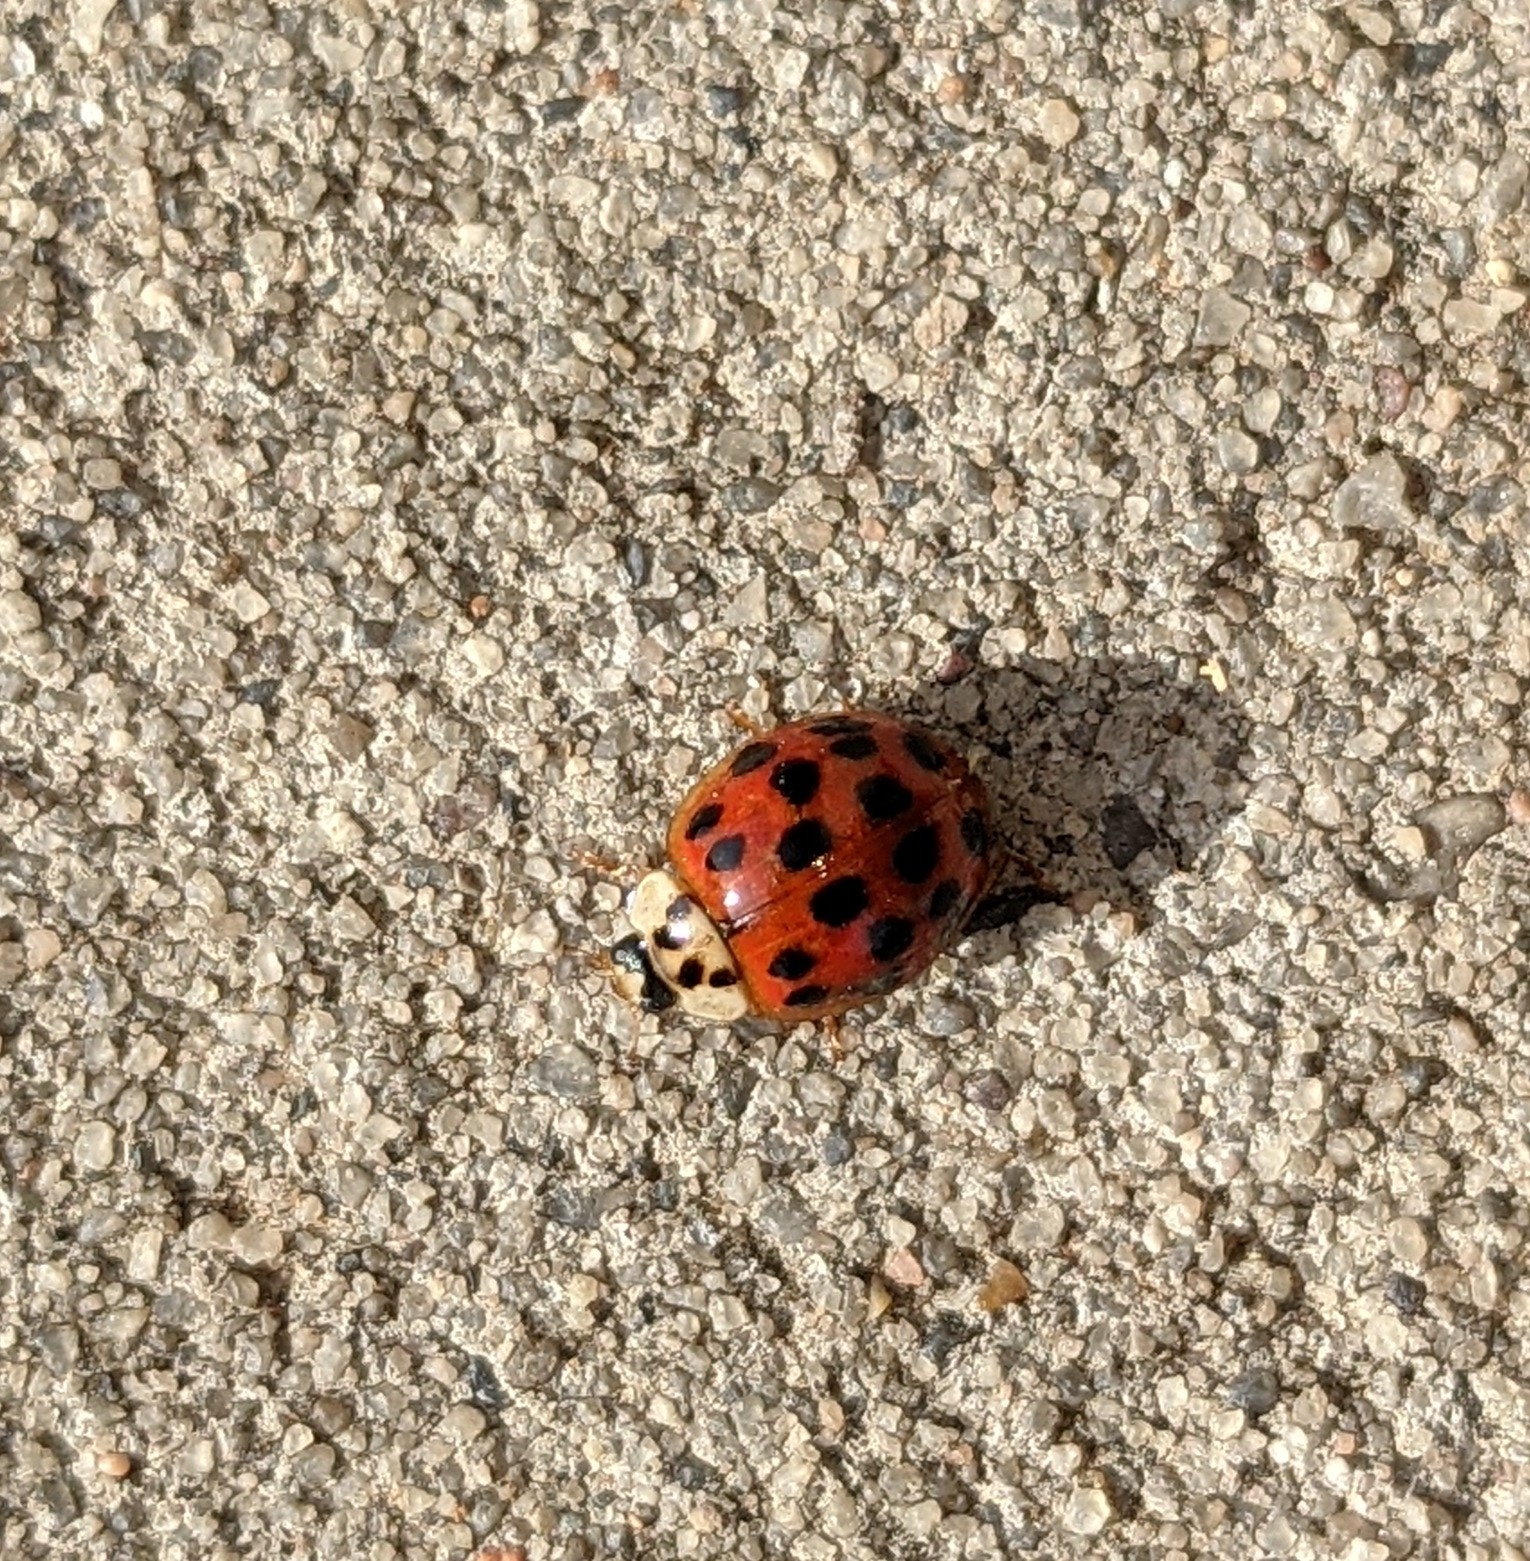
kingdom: Animalia
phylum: Arthropoda
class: Insecta
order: Coleoptera
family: Coccinellidae
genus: Harmonia
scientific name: Harmonia axyridis
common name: Harlequin ladybird
